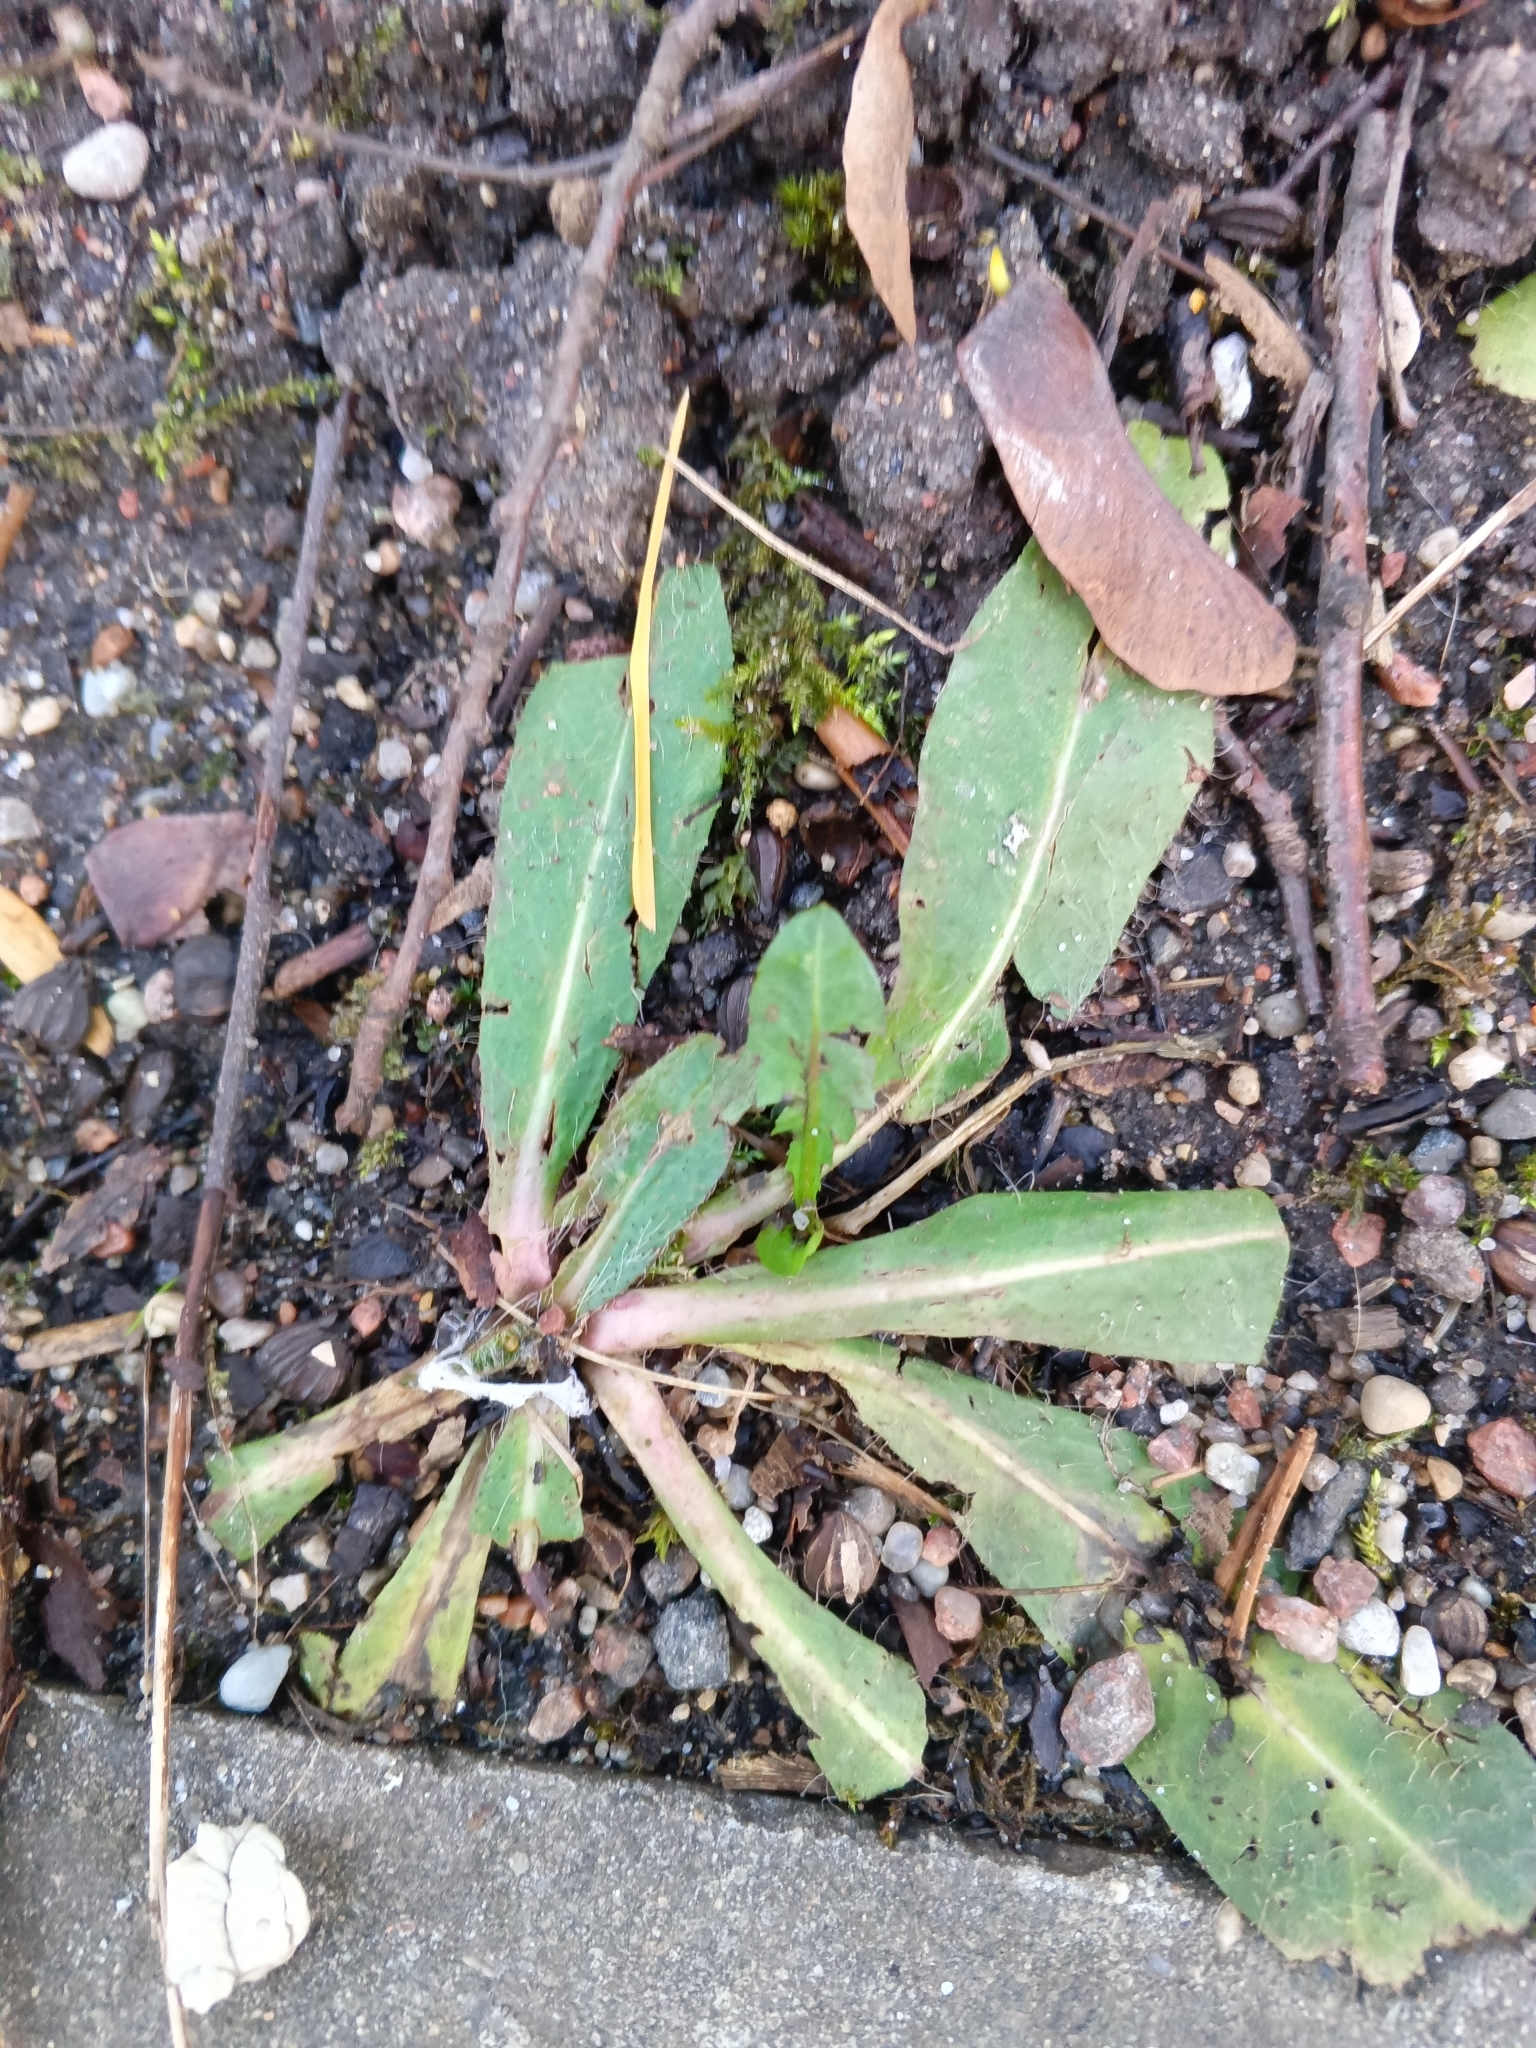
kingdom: Plantae
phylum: Tracheophyta
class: Magnoliopsida
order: Asterales
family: Asteraceae
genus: Pilosella
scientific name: Pilosella officinarum
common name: Mouse-ear hawkweed
